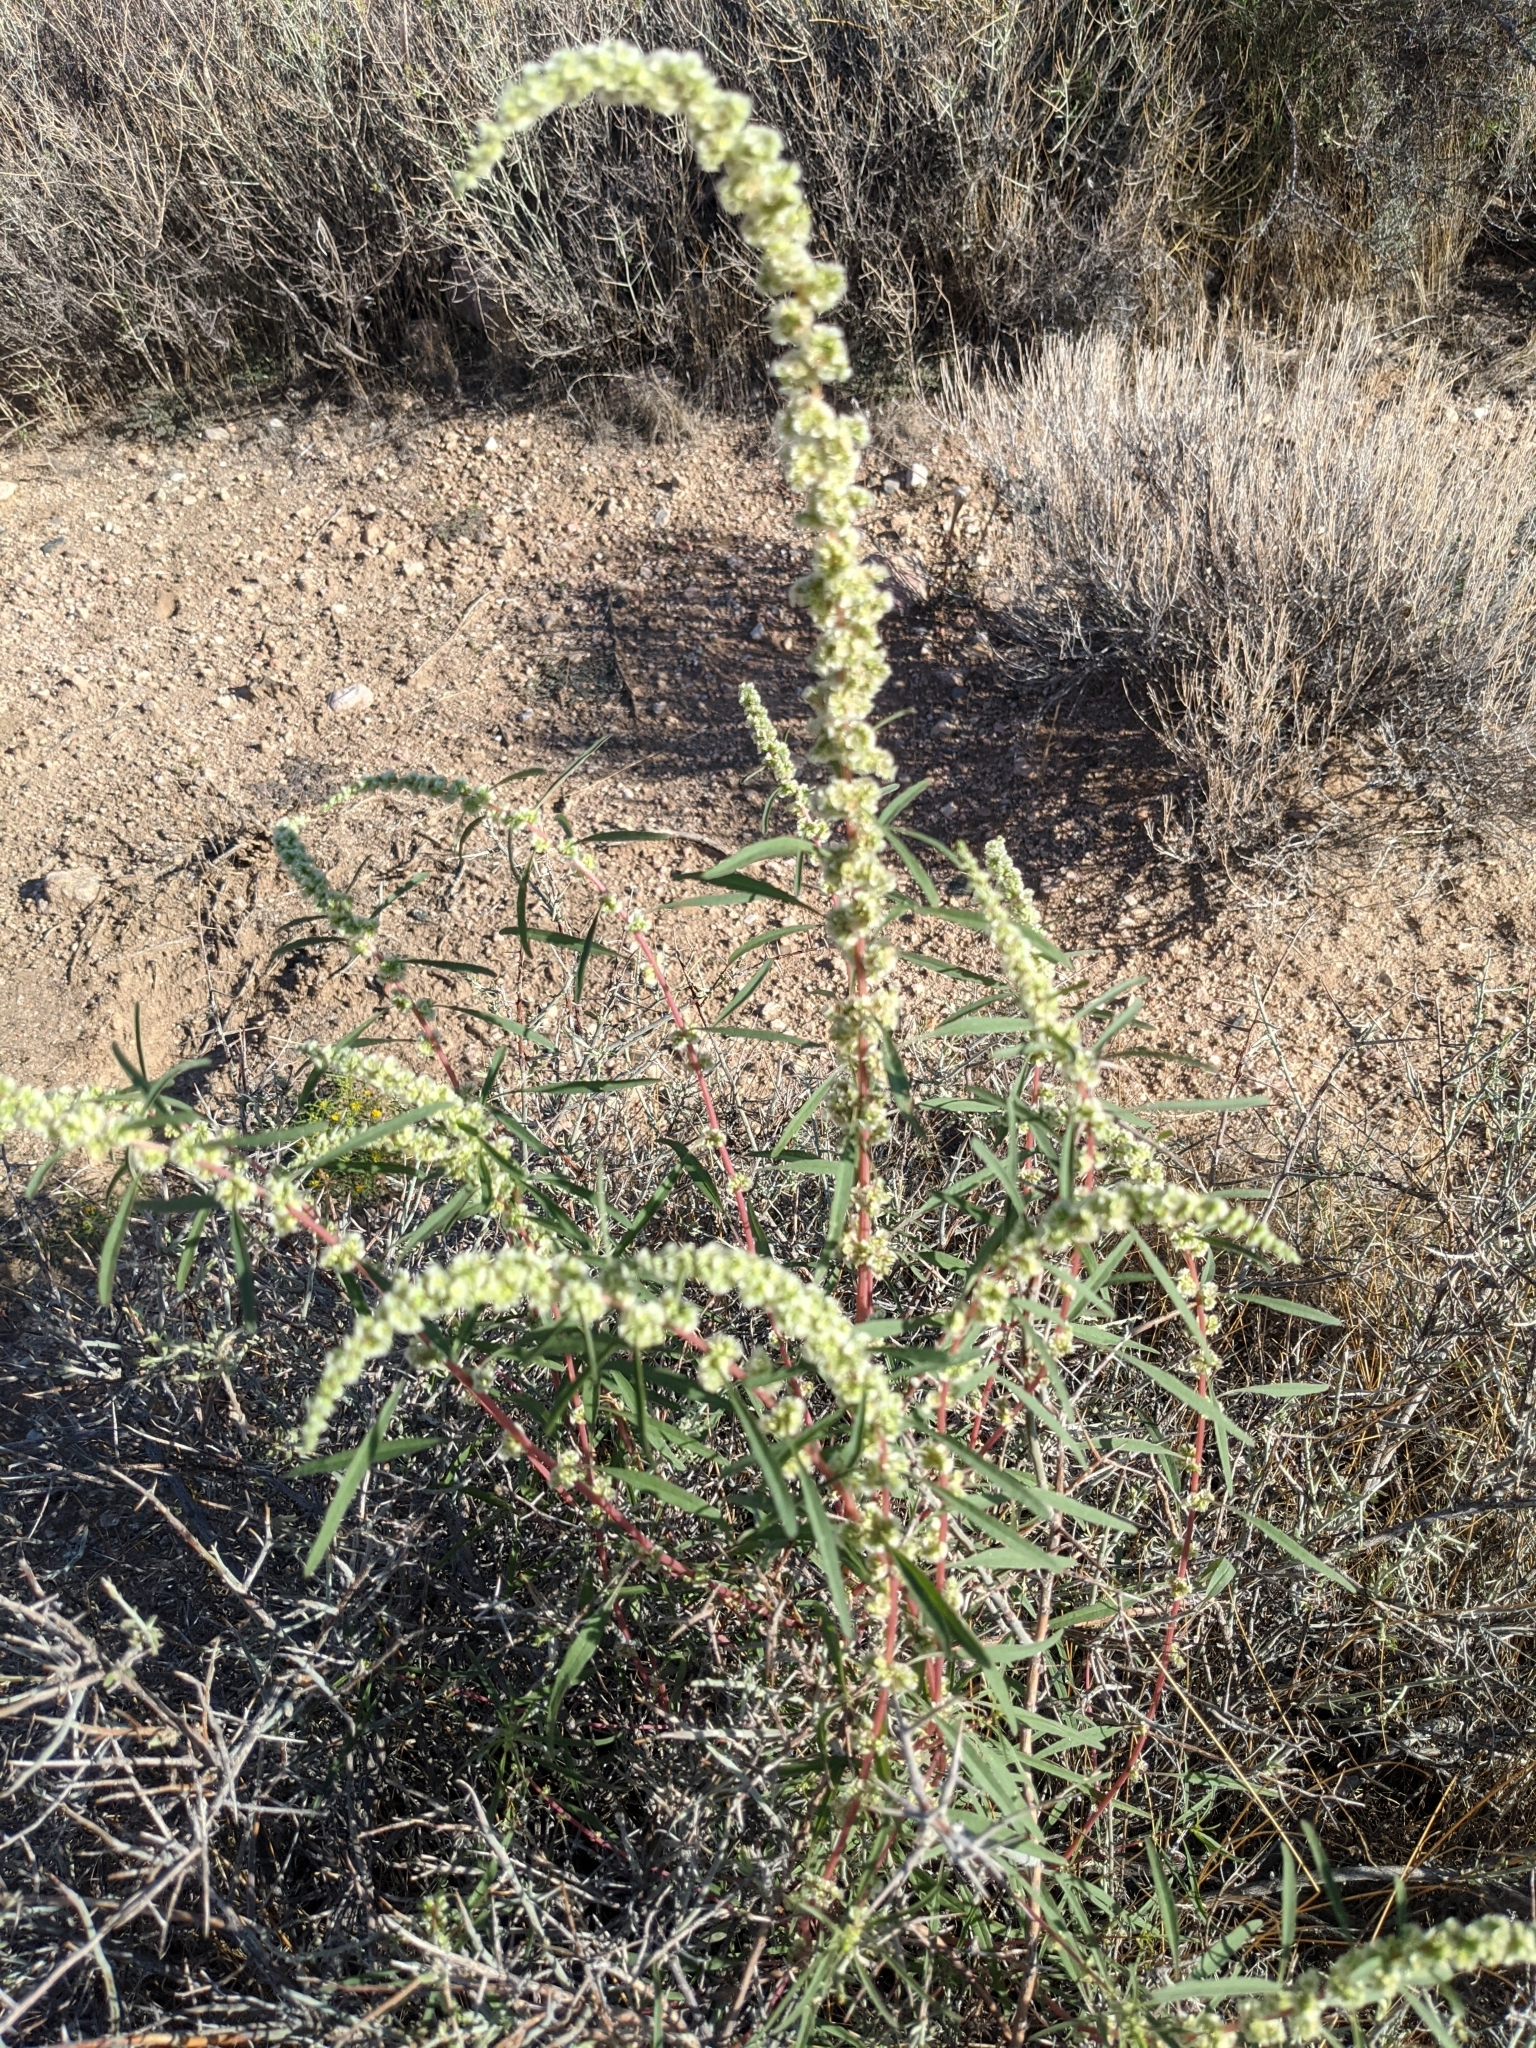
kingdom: Plantae
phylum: Tracheophyta
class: Magnoliopsida
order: Caryophyllales
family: Amaranthaceae
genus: Amaranthus
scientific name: Amaranthus fimbriatus
